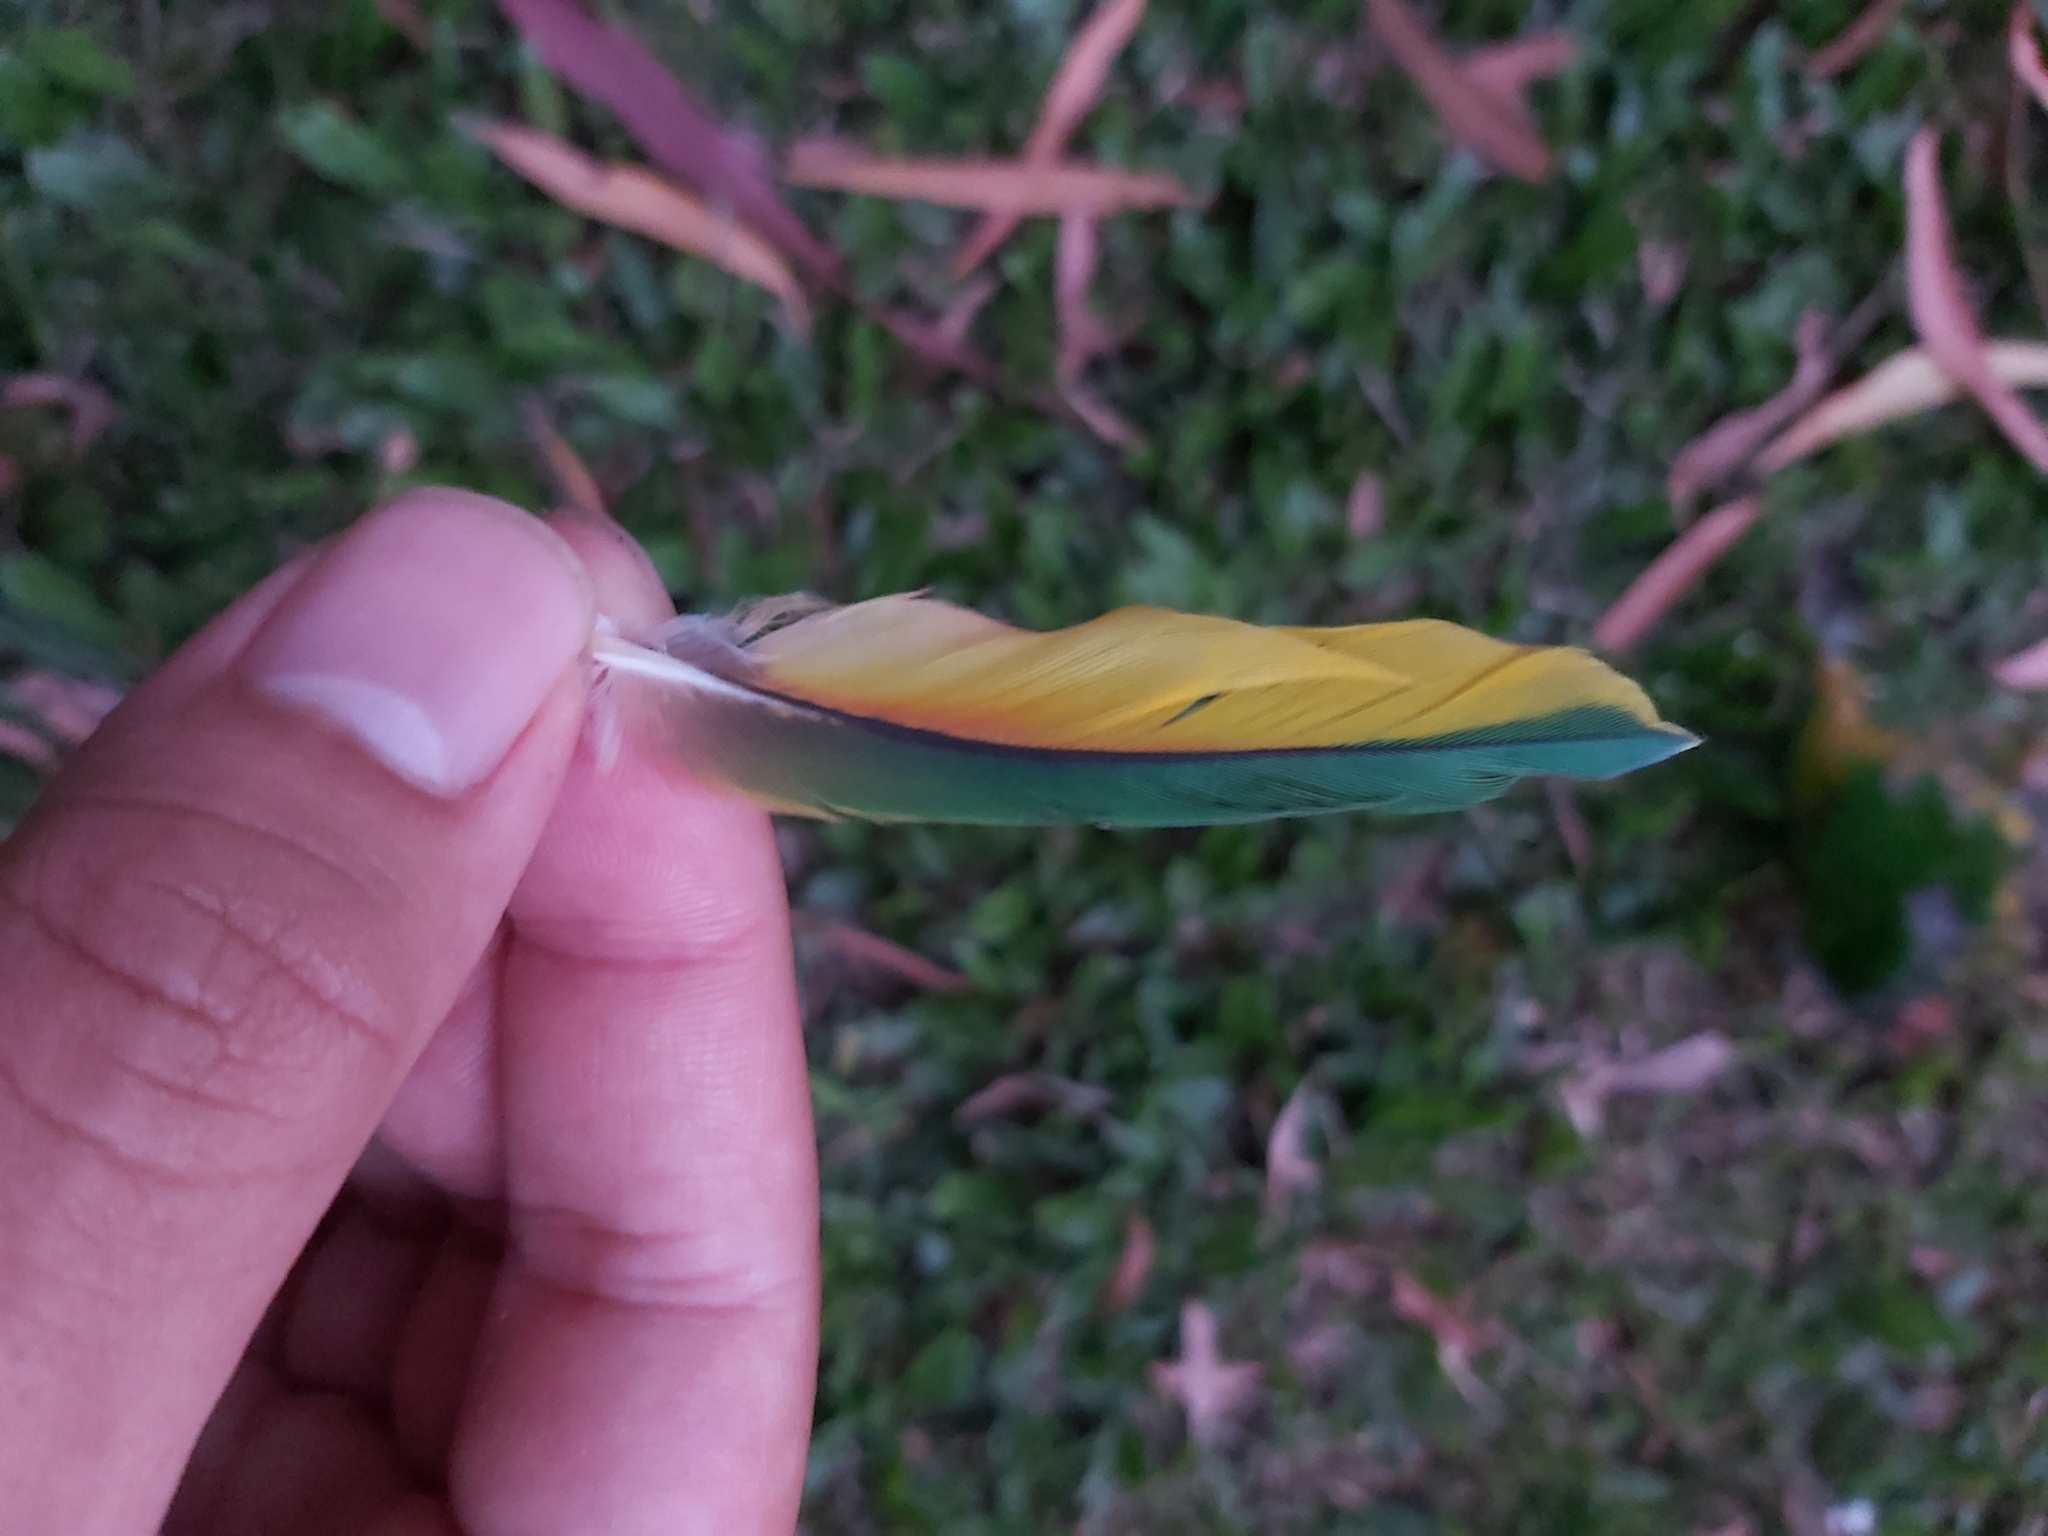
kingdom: Animalia
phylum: Chordata
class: Aves
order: Psittaciformes
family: Psittacidae
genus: Trichoglossus
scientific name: Trichoglossus haematodus
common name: Coconut lorikeet
